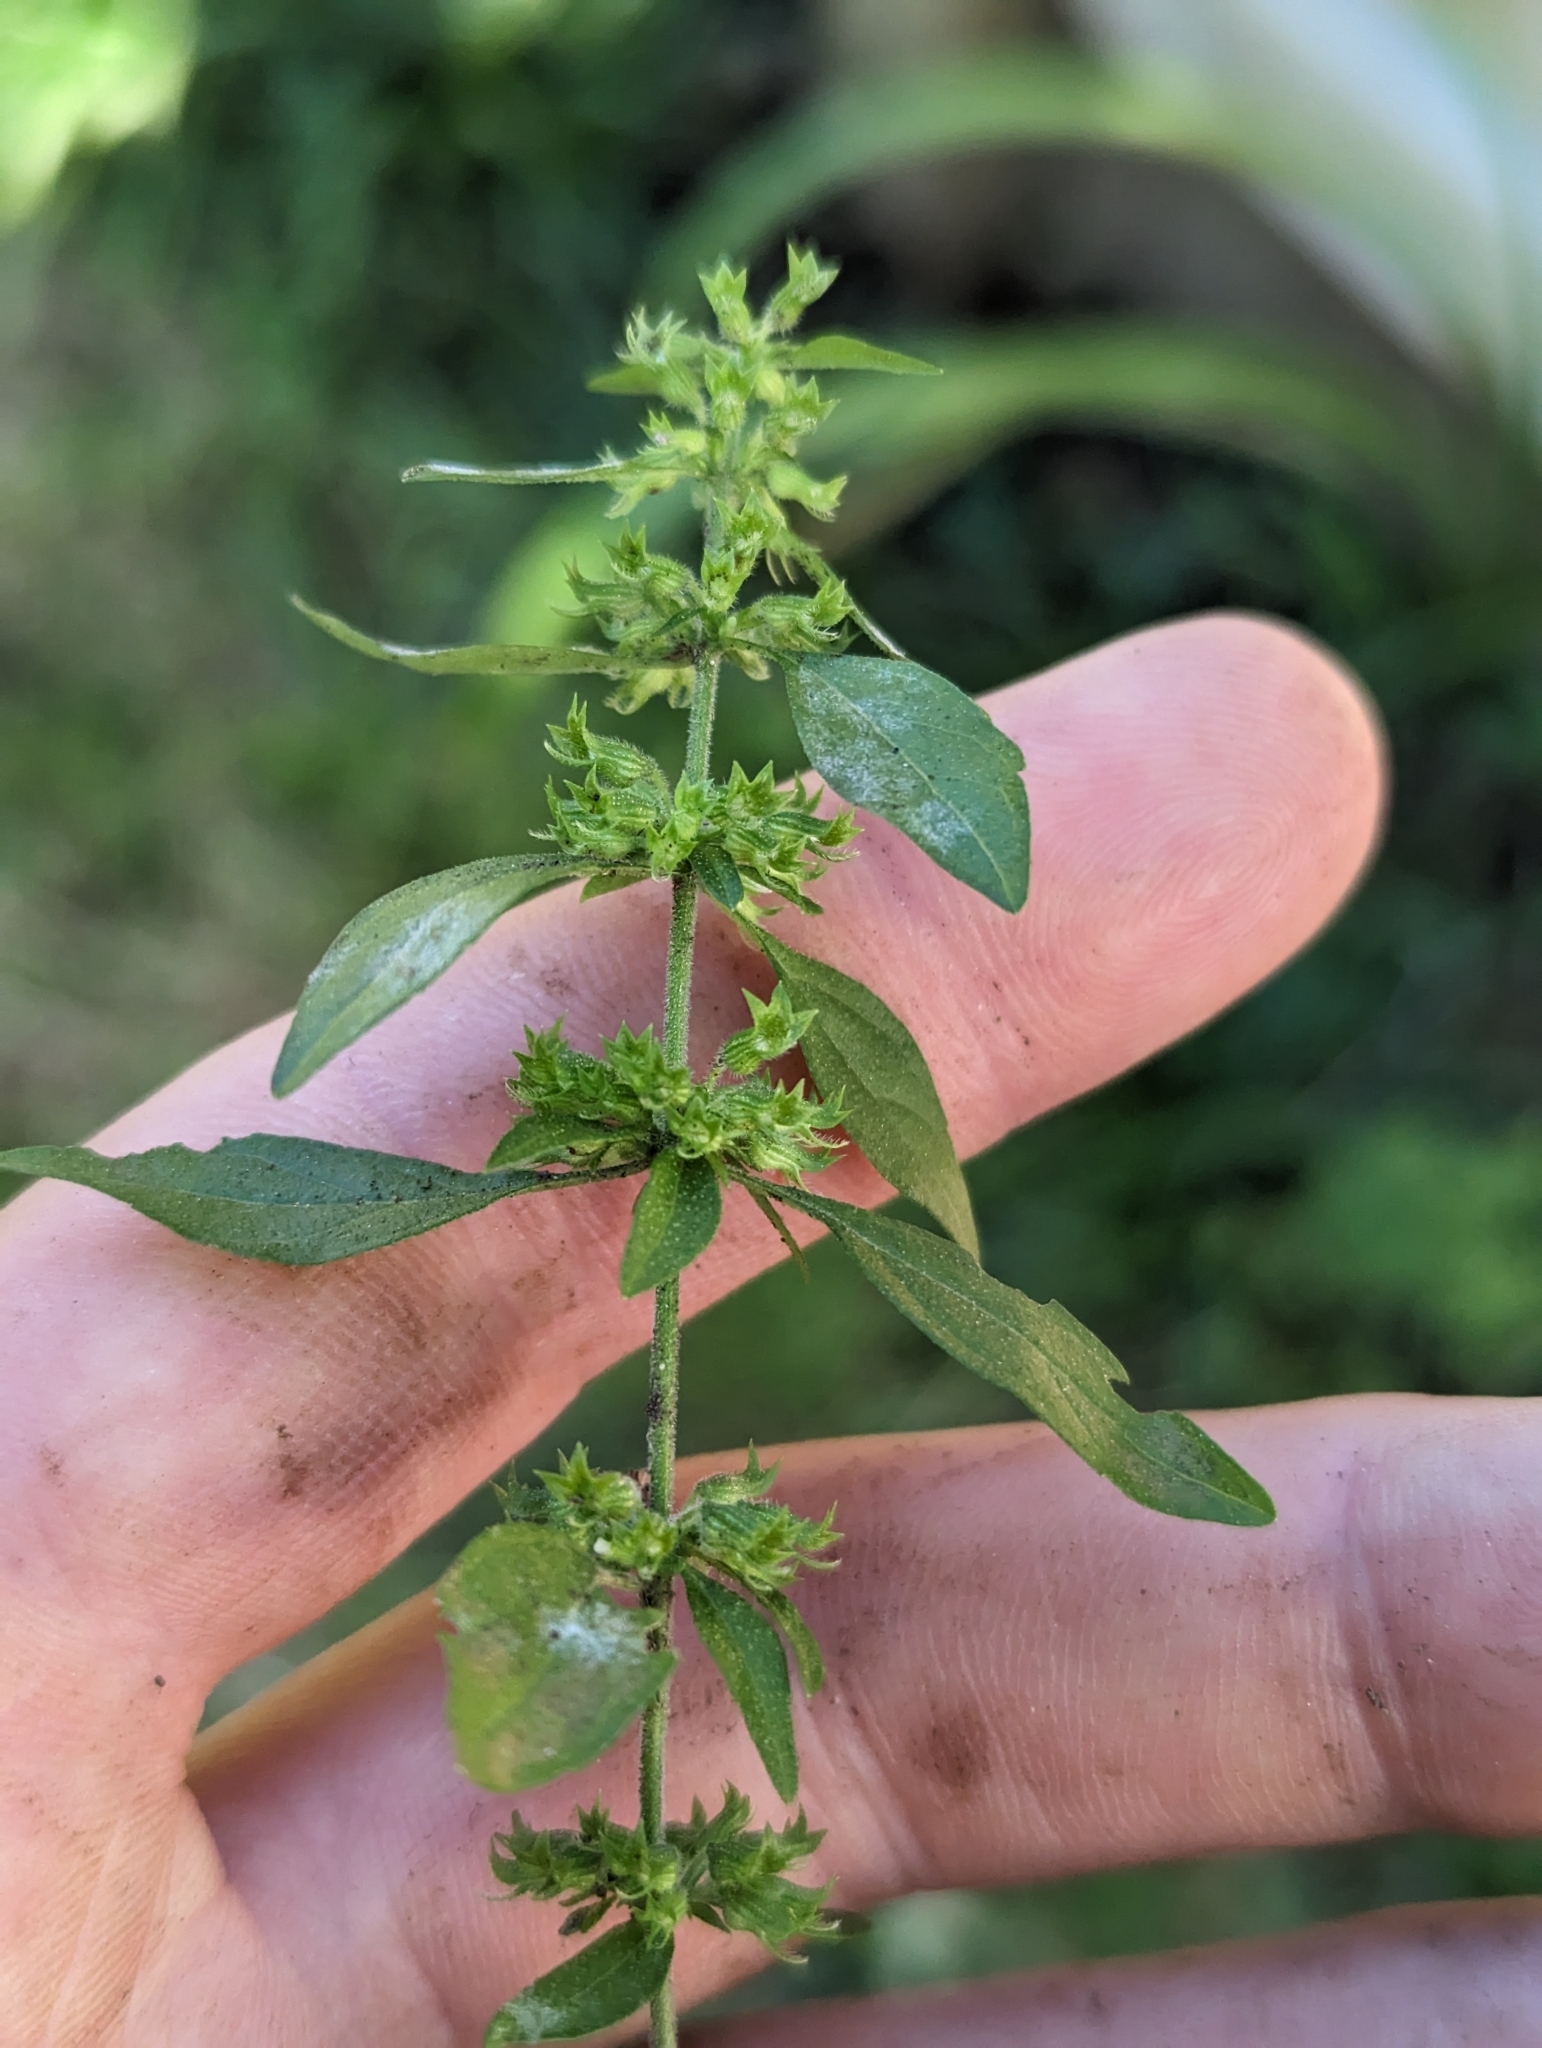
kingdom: Plantae
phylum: Tracheophyta
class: Magnoliopsida
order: Lamiales
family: Lamiaceae
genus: Hedeoma
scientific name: Hedeoma pulegioides
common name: American false pennyroyal
